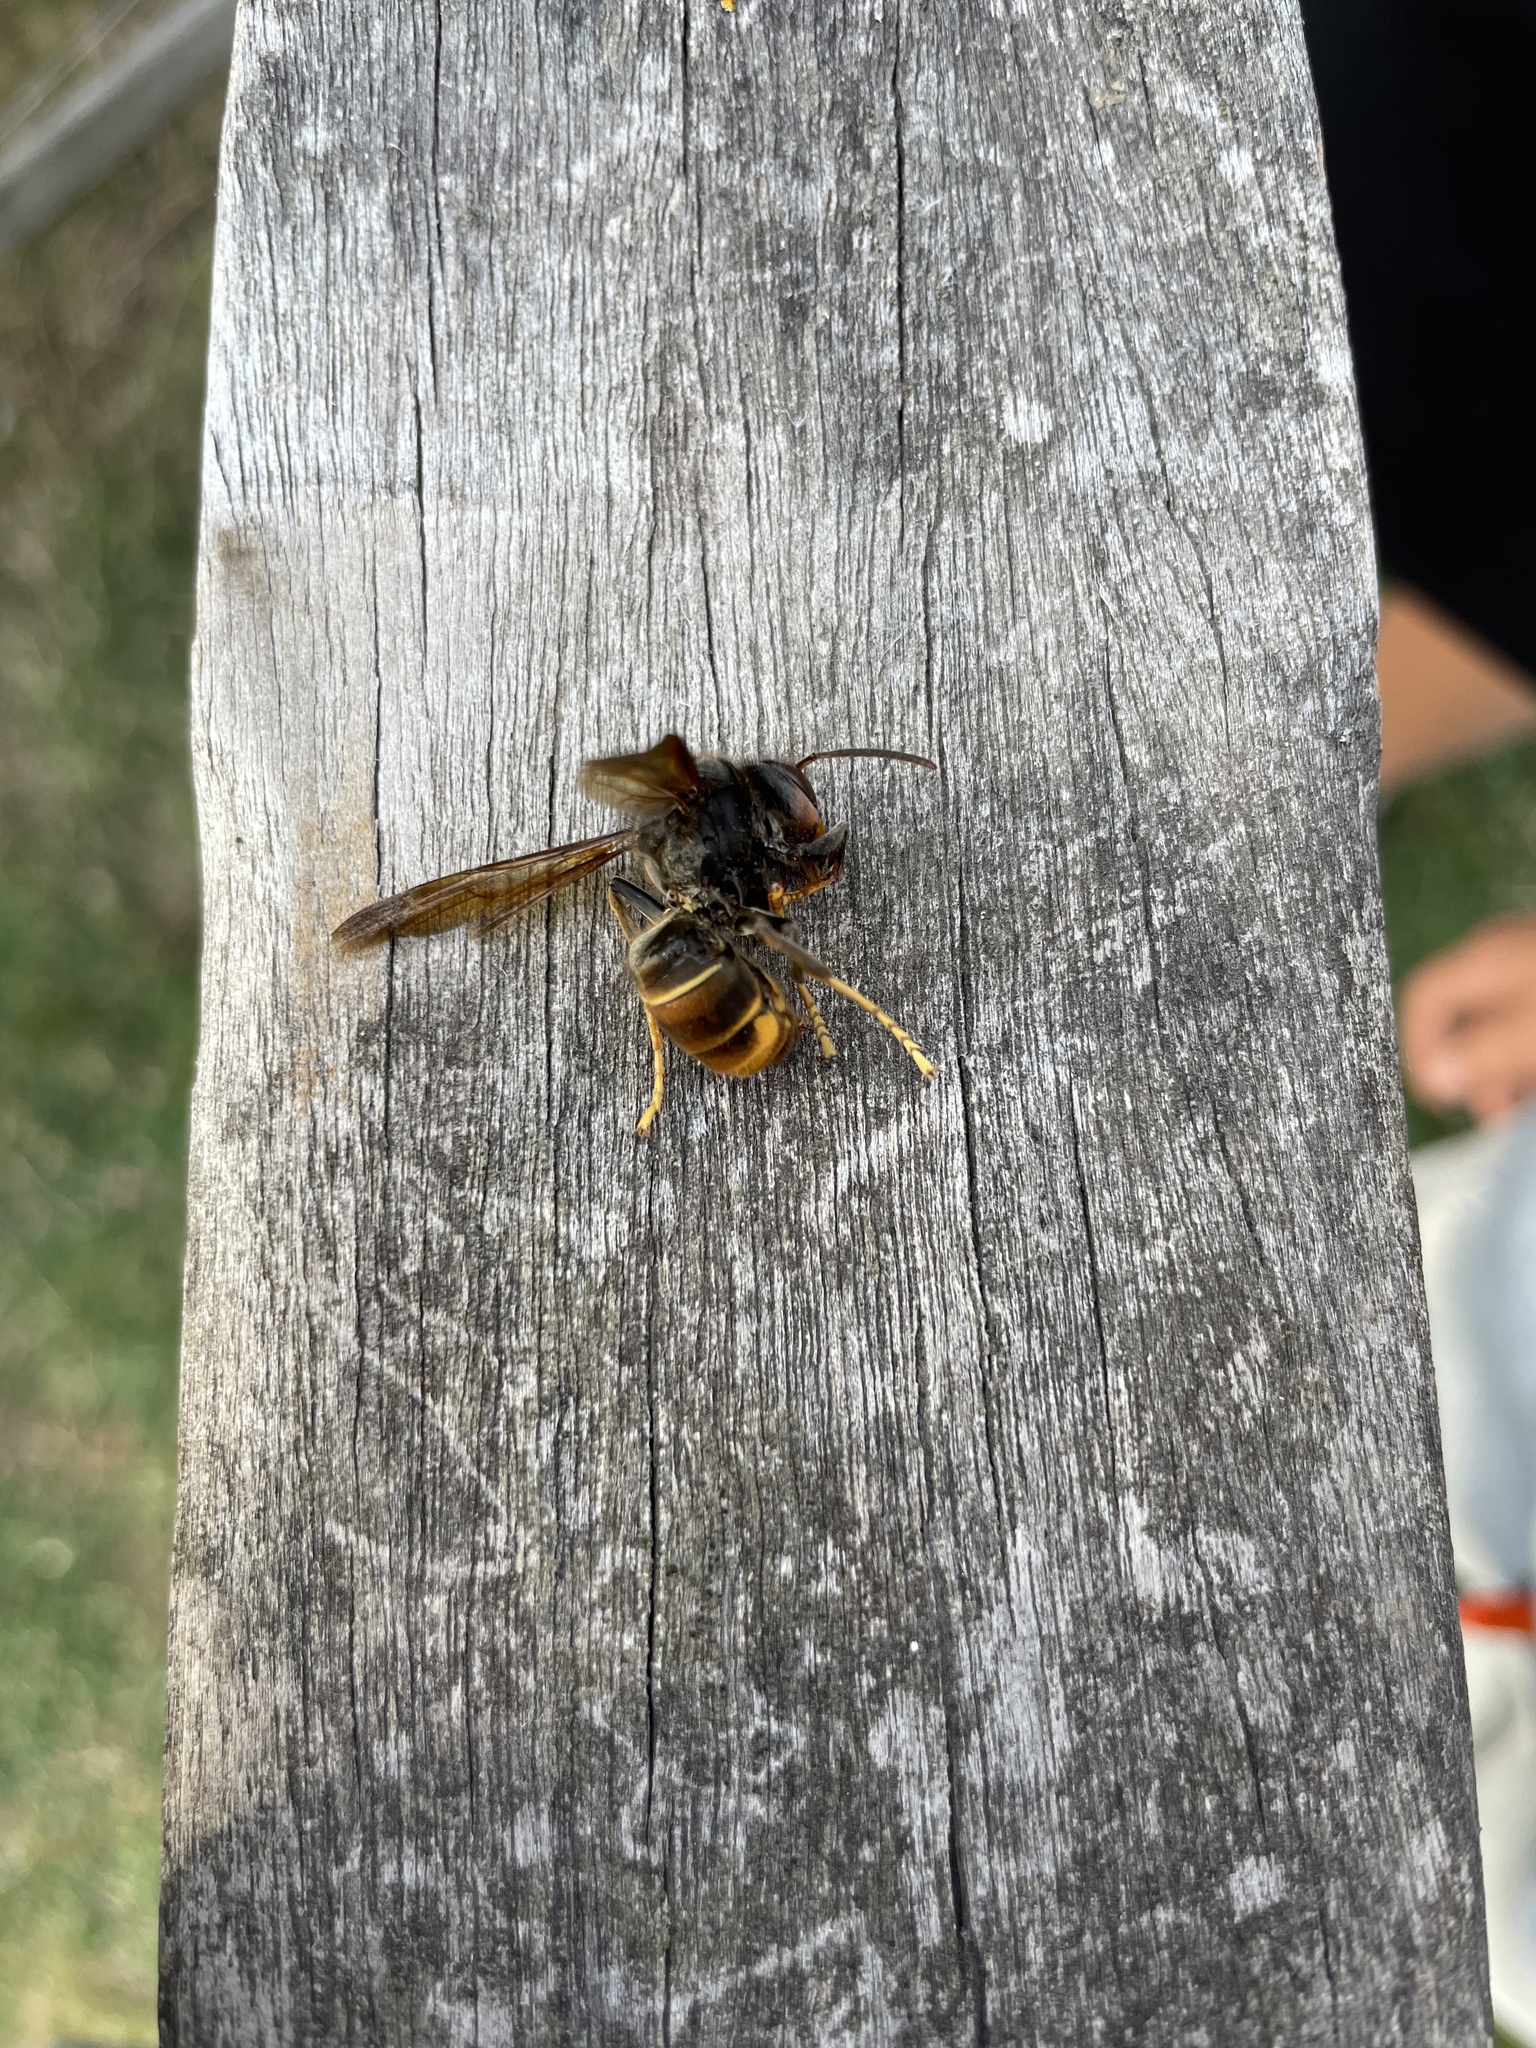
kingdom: Animalia
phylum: Arthropoda
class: Insecta
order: Hymenoptera
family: Vespidae
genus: Vespa
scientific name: Vespa velutina
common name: Asian hornet
